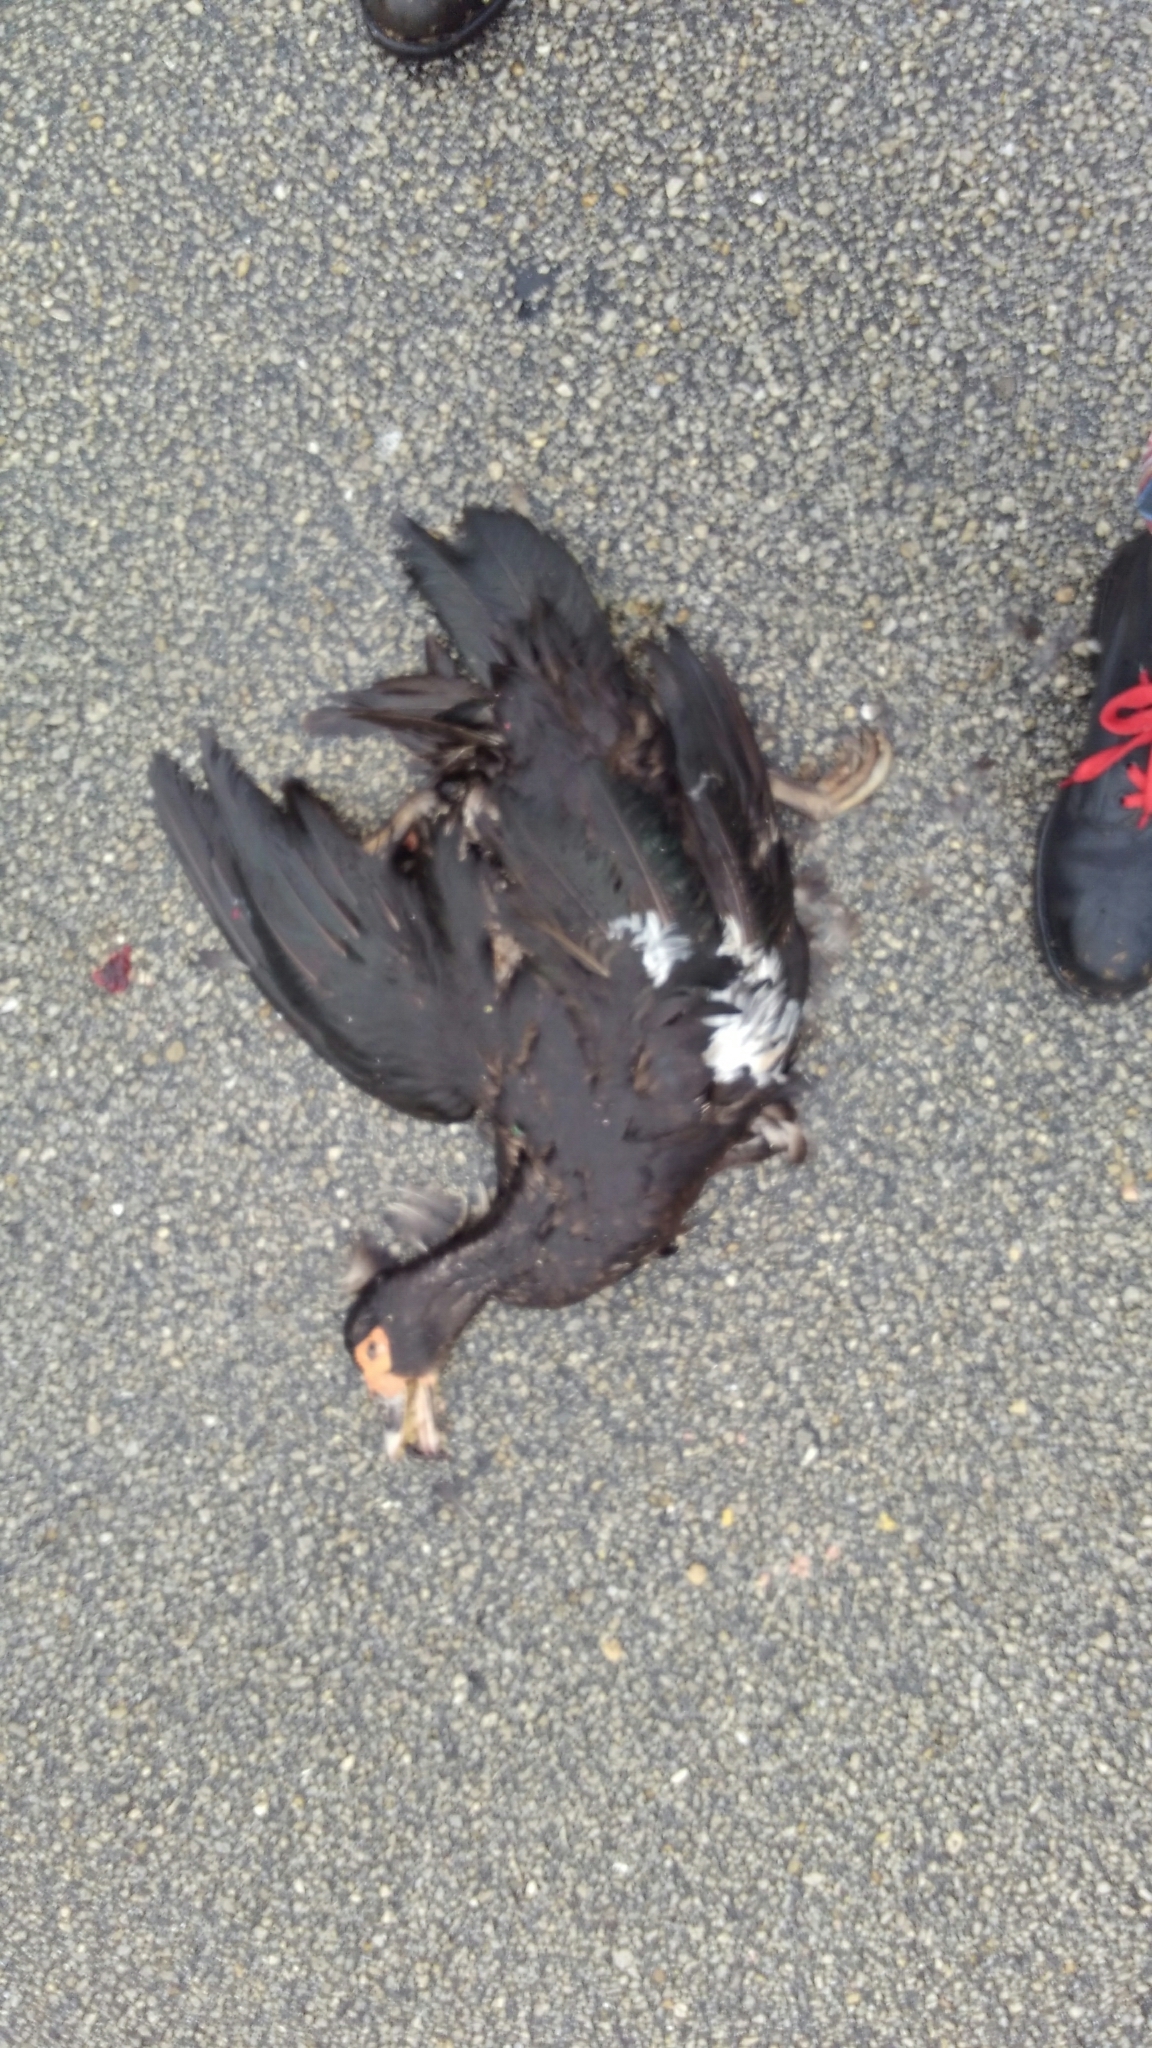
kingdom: Animalia
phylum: Chordata
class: Aves
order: Anseriformes
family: Anatidae
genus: Cairina
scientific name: Cairina moschata
